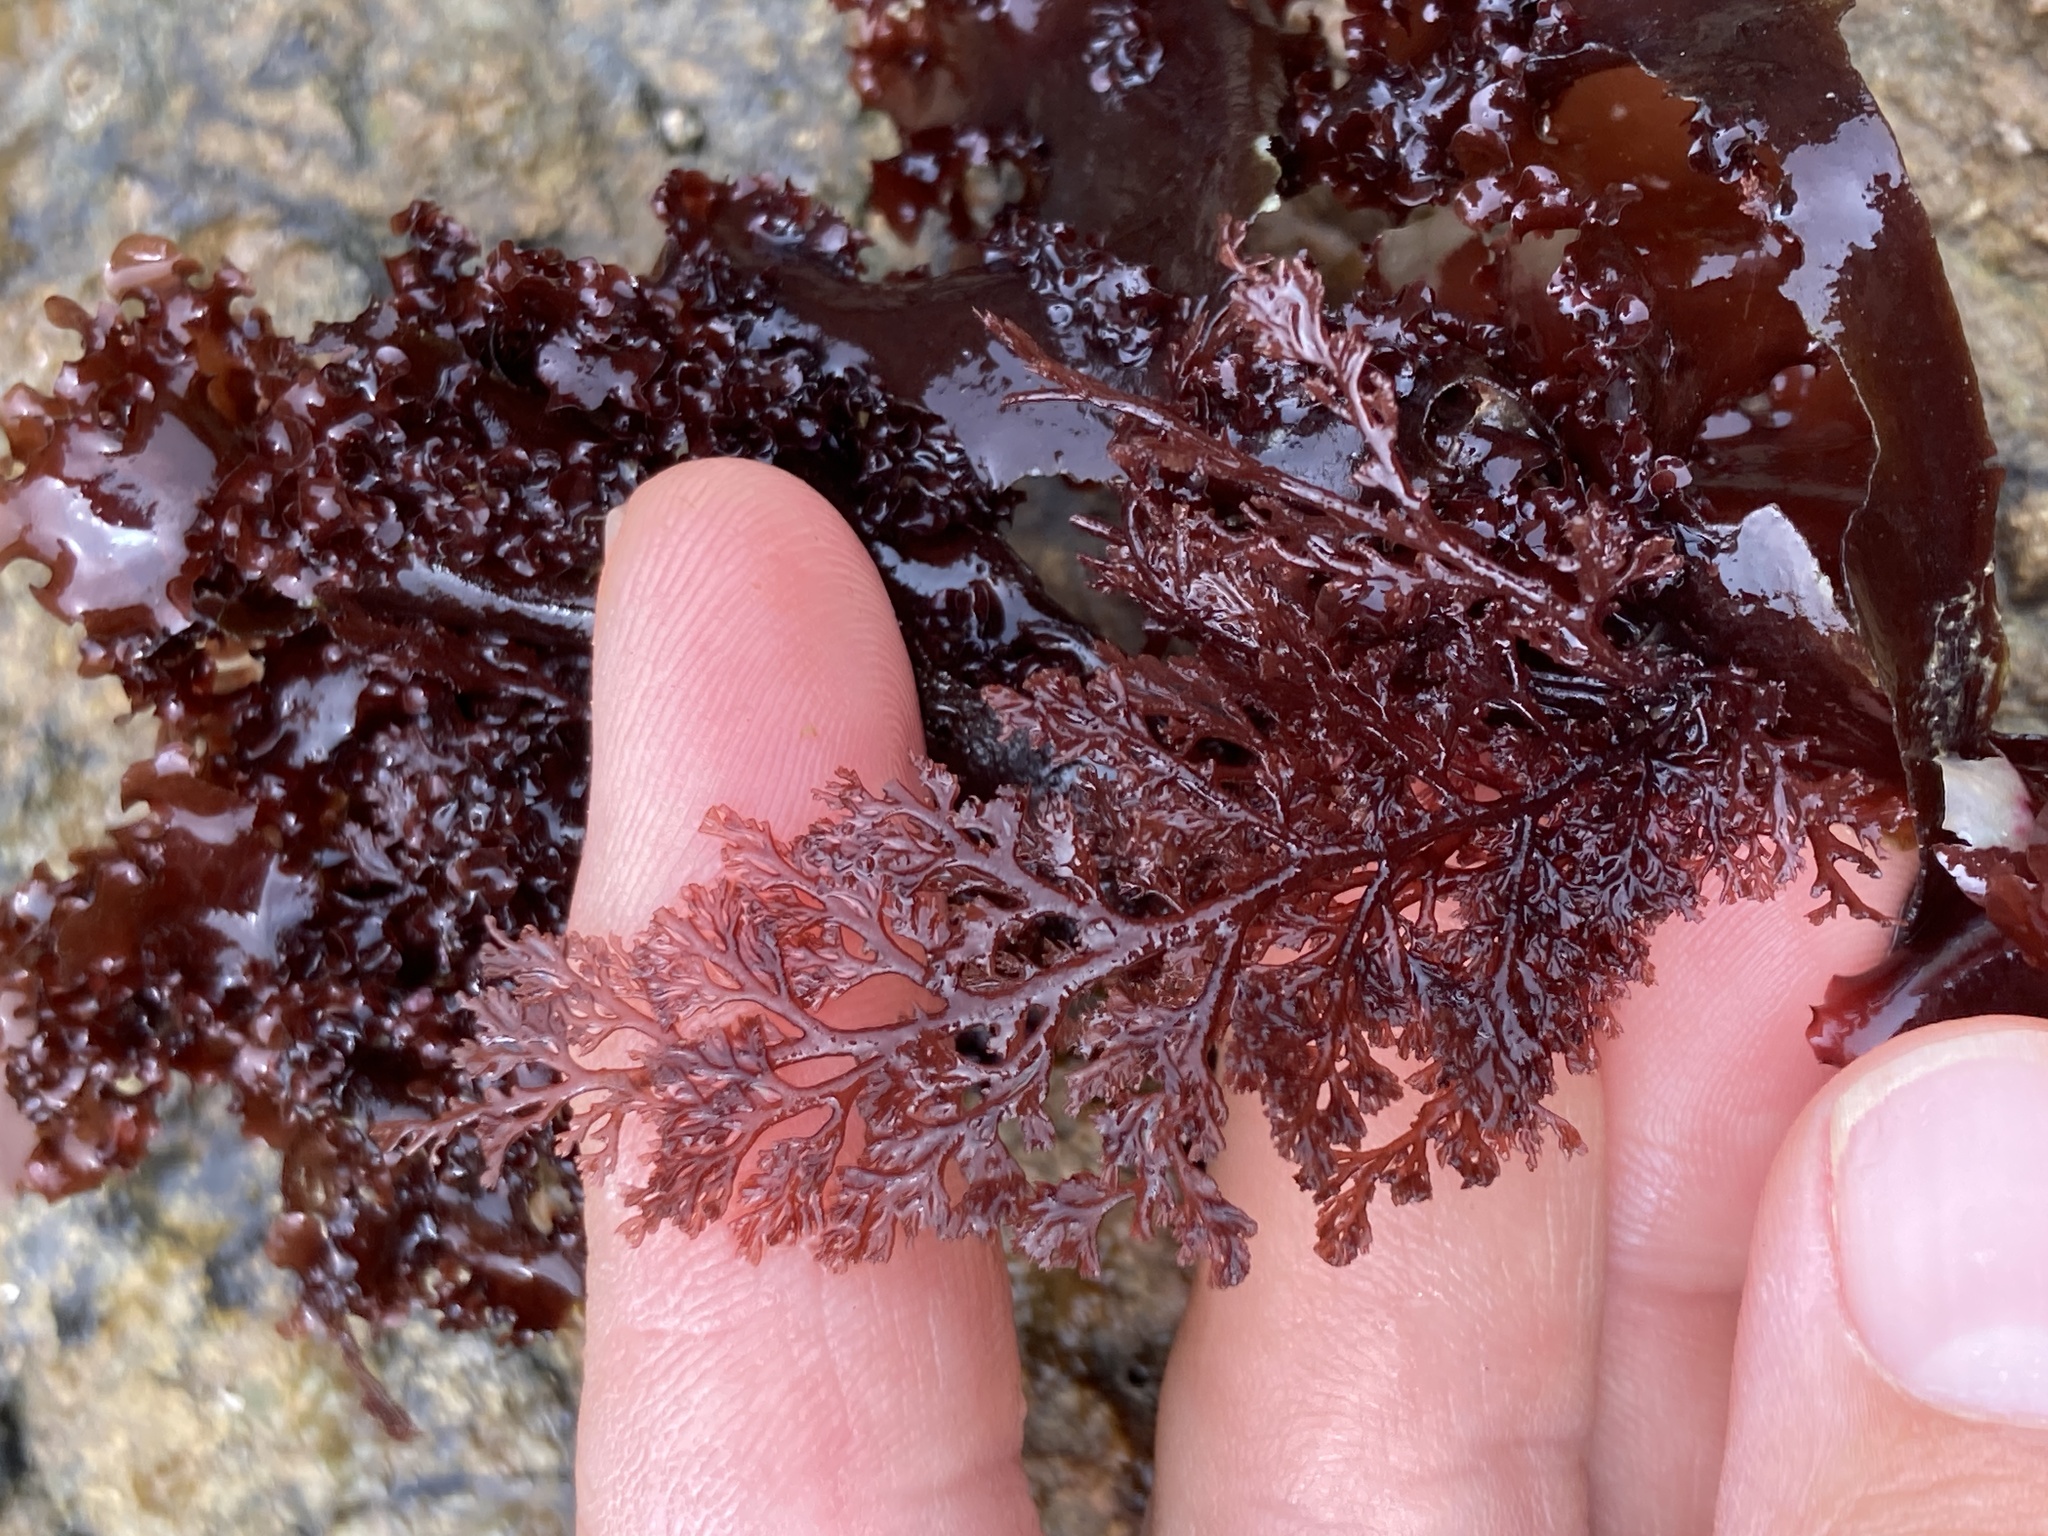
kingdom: Plantae
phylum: Rhodophyta
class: Florideophyceae
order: Ceramiales
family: Ceramiaceae
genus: Microcladia
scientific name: Microcladia coulteri
